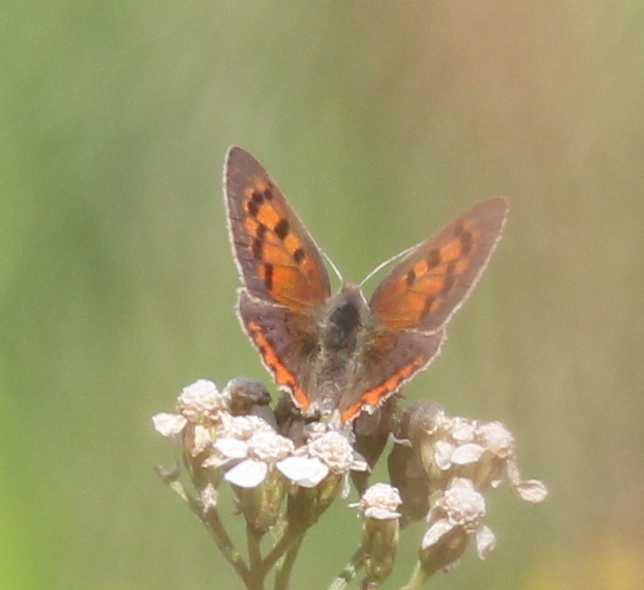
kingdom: Animalia
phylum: Arthropoda
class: Insecta
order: Lepidoptera
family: Lycaenidae
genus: Lycaena
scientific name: Lycaena phlaeas
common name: Small copper
